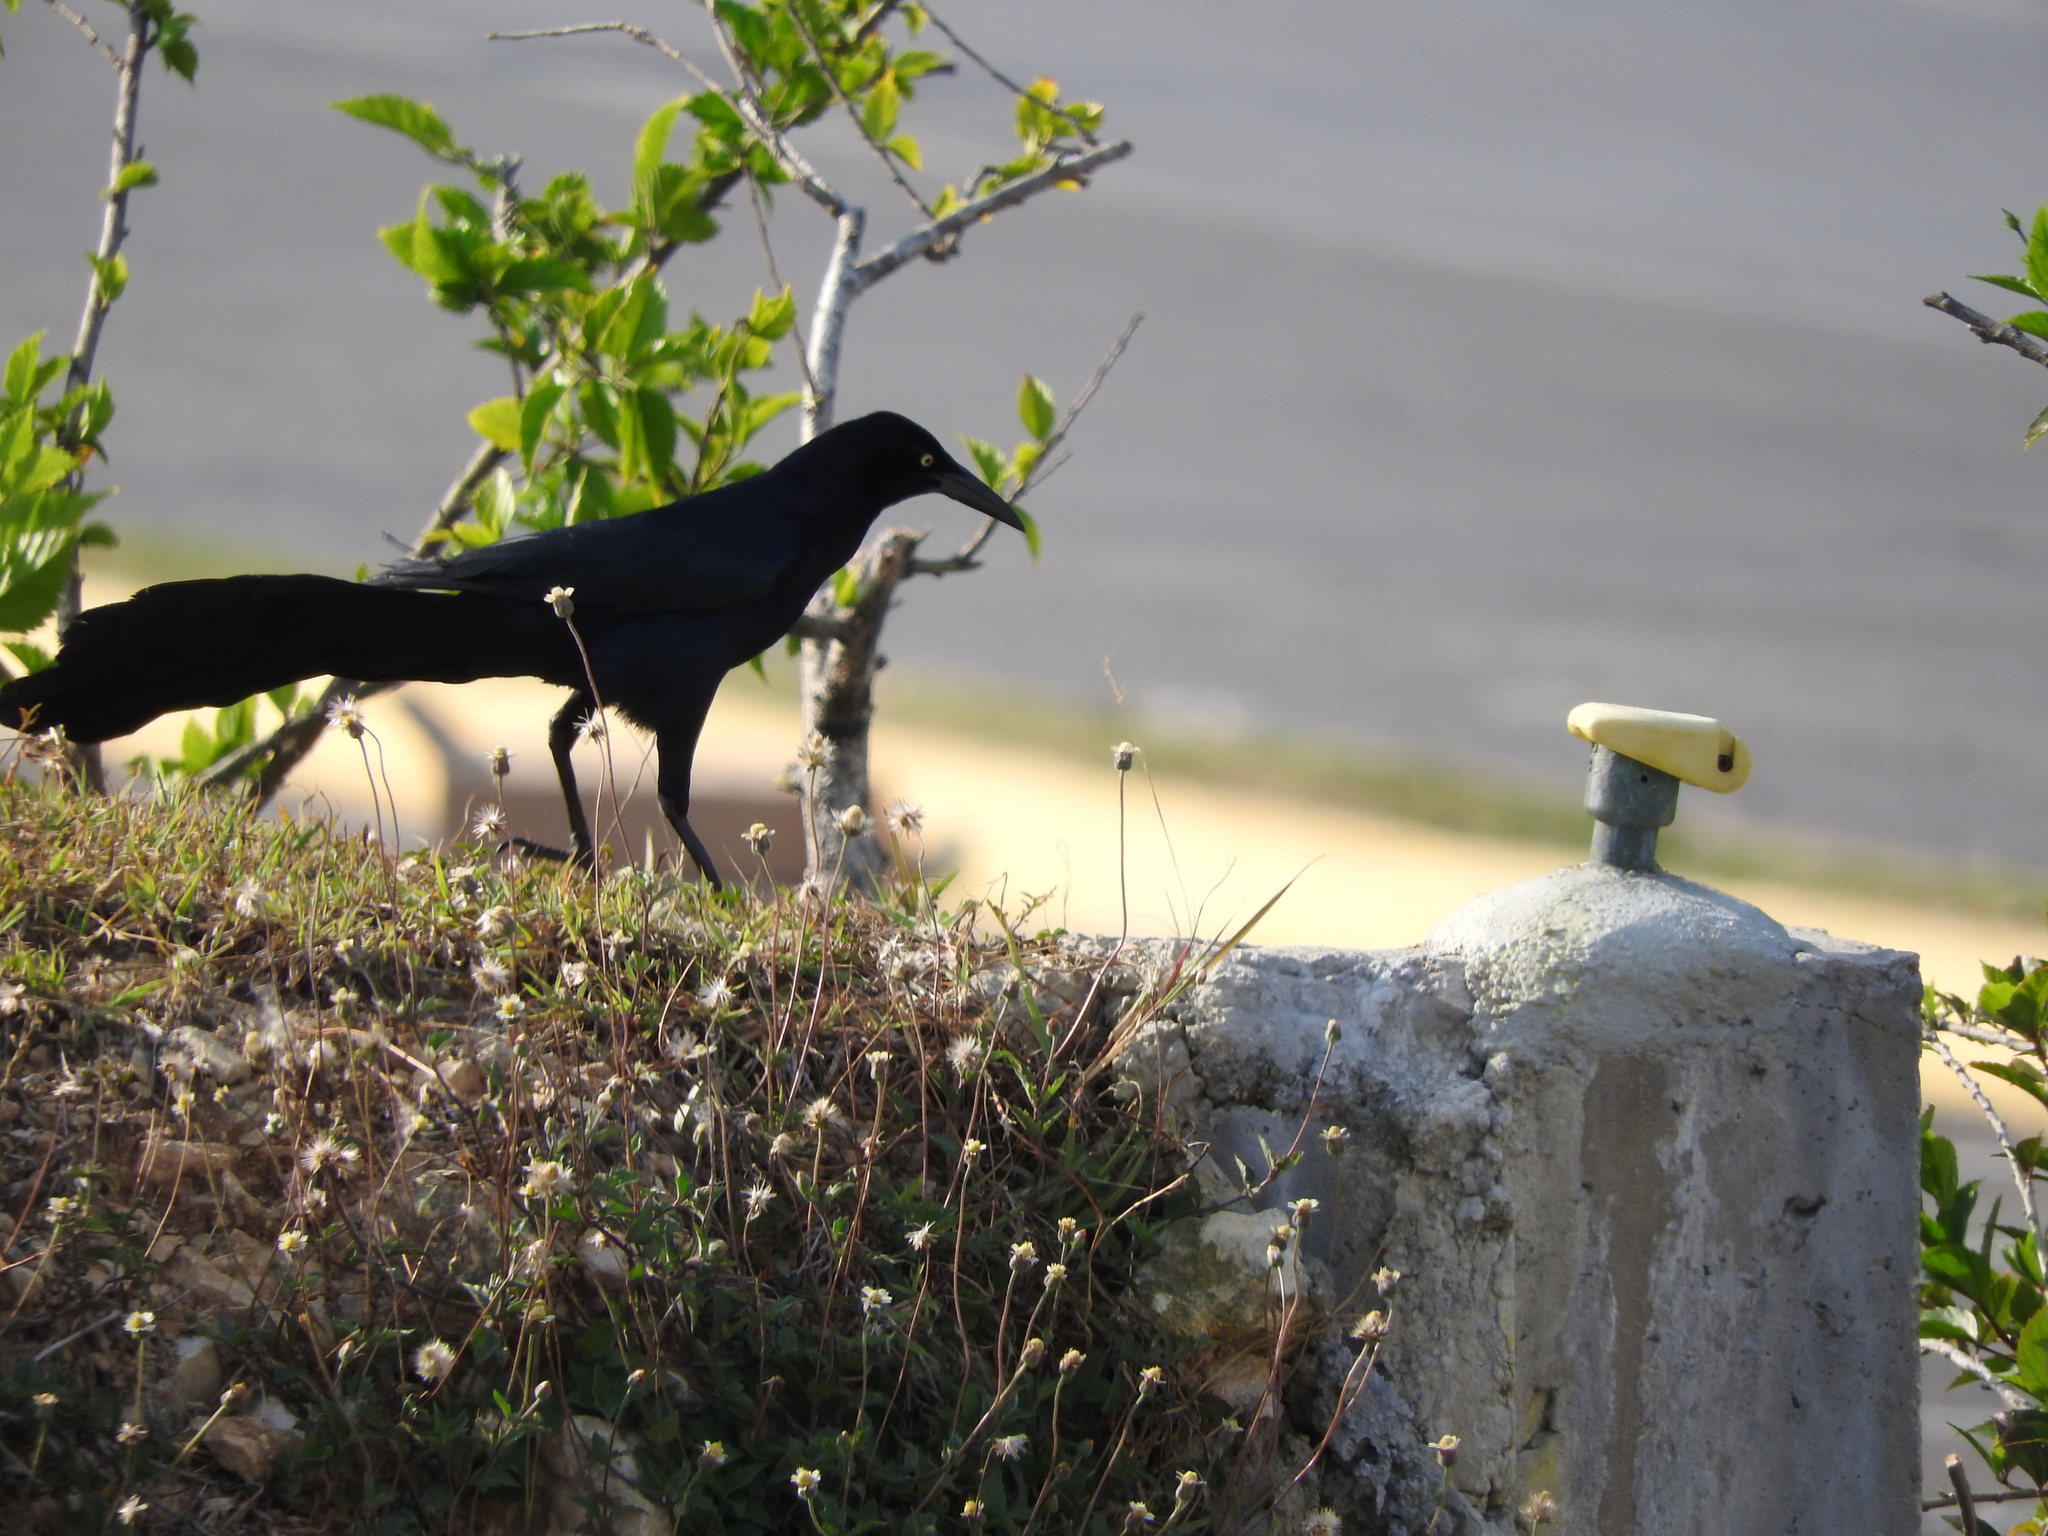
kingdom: Animalia
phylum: Chordata
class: Aves
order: Passeriformes
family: Icteridae
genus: Quiscalus
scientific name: Quiscalus mexicanus
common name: Great-tailed grackle
